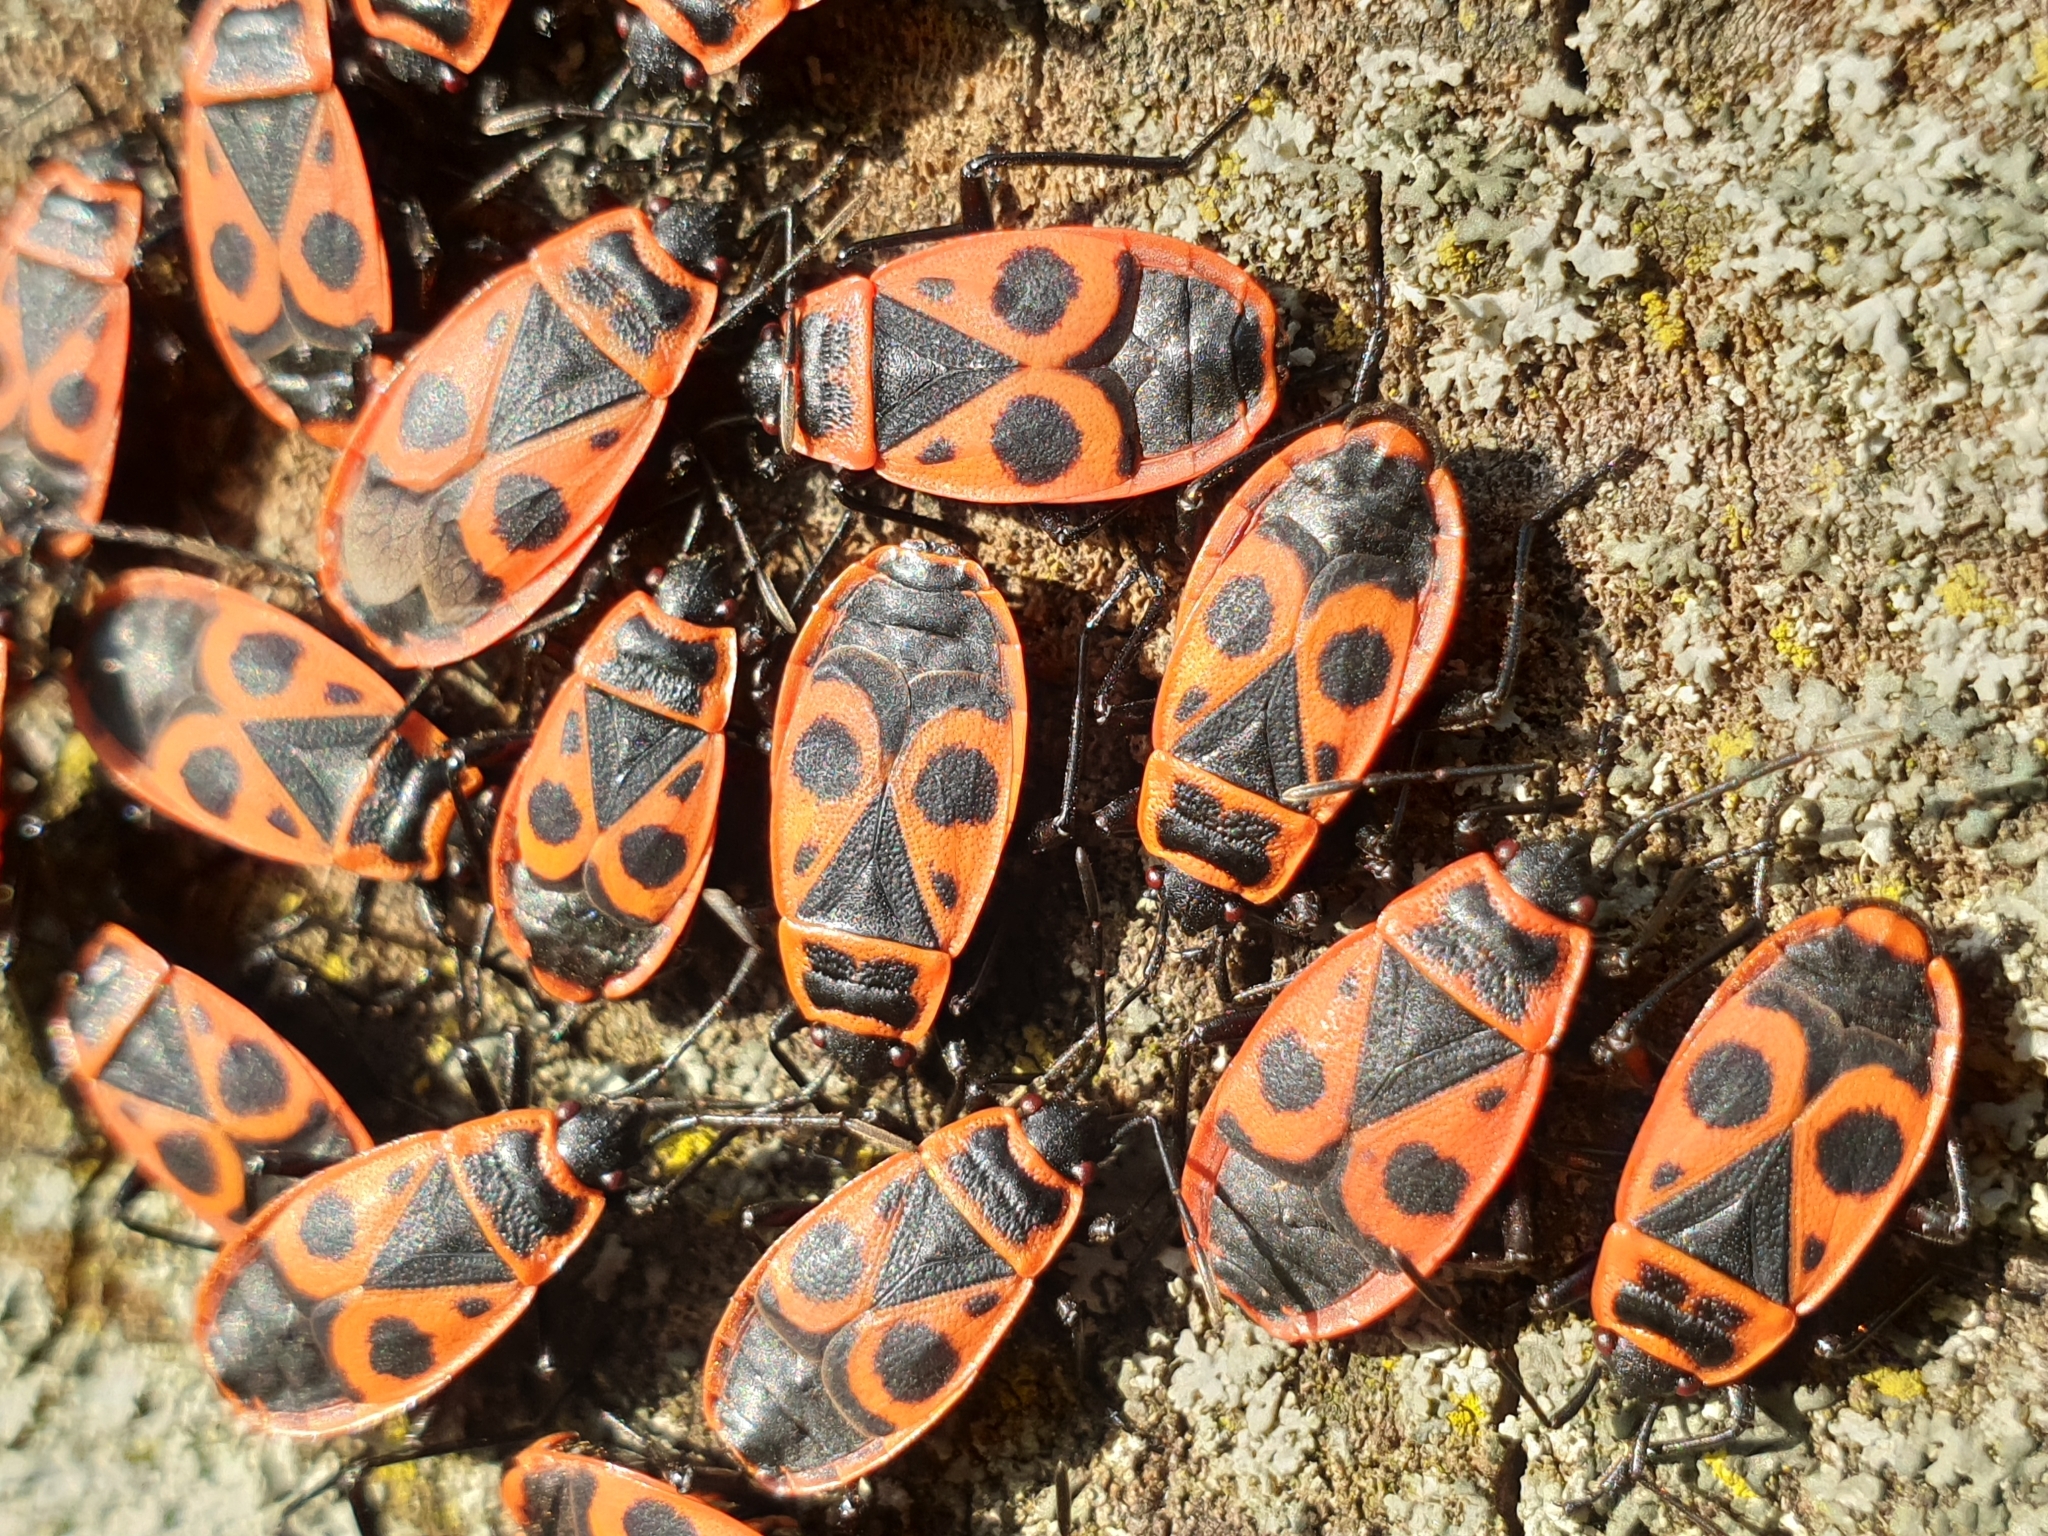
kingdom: Animalia
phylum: Arthropoda
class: Insecta
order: Hemiptera
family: Pyrrhocoridae
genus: Pyrrhocoris
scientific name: Pyrrhocoris apterus
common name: Firebug
